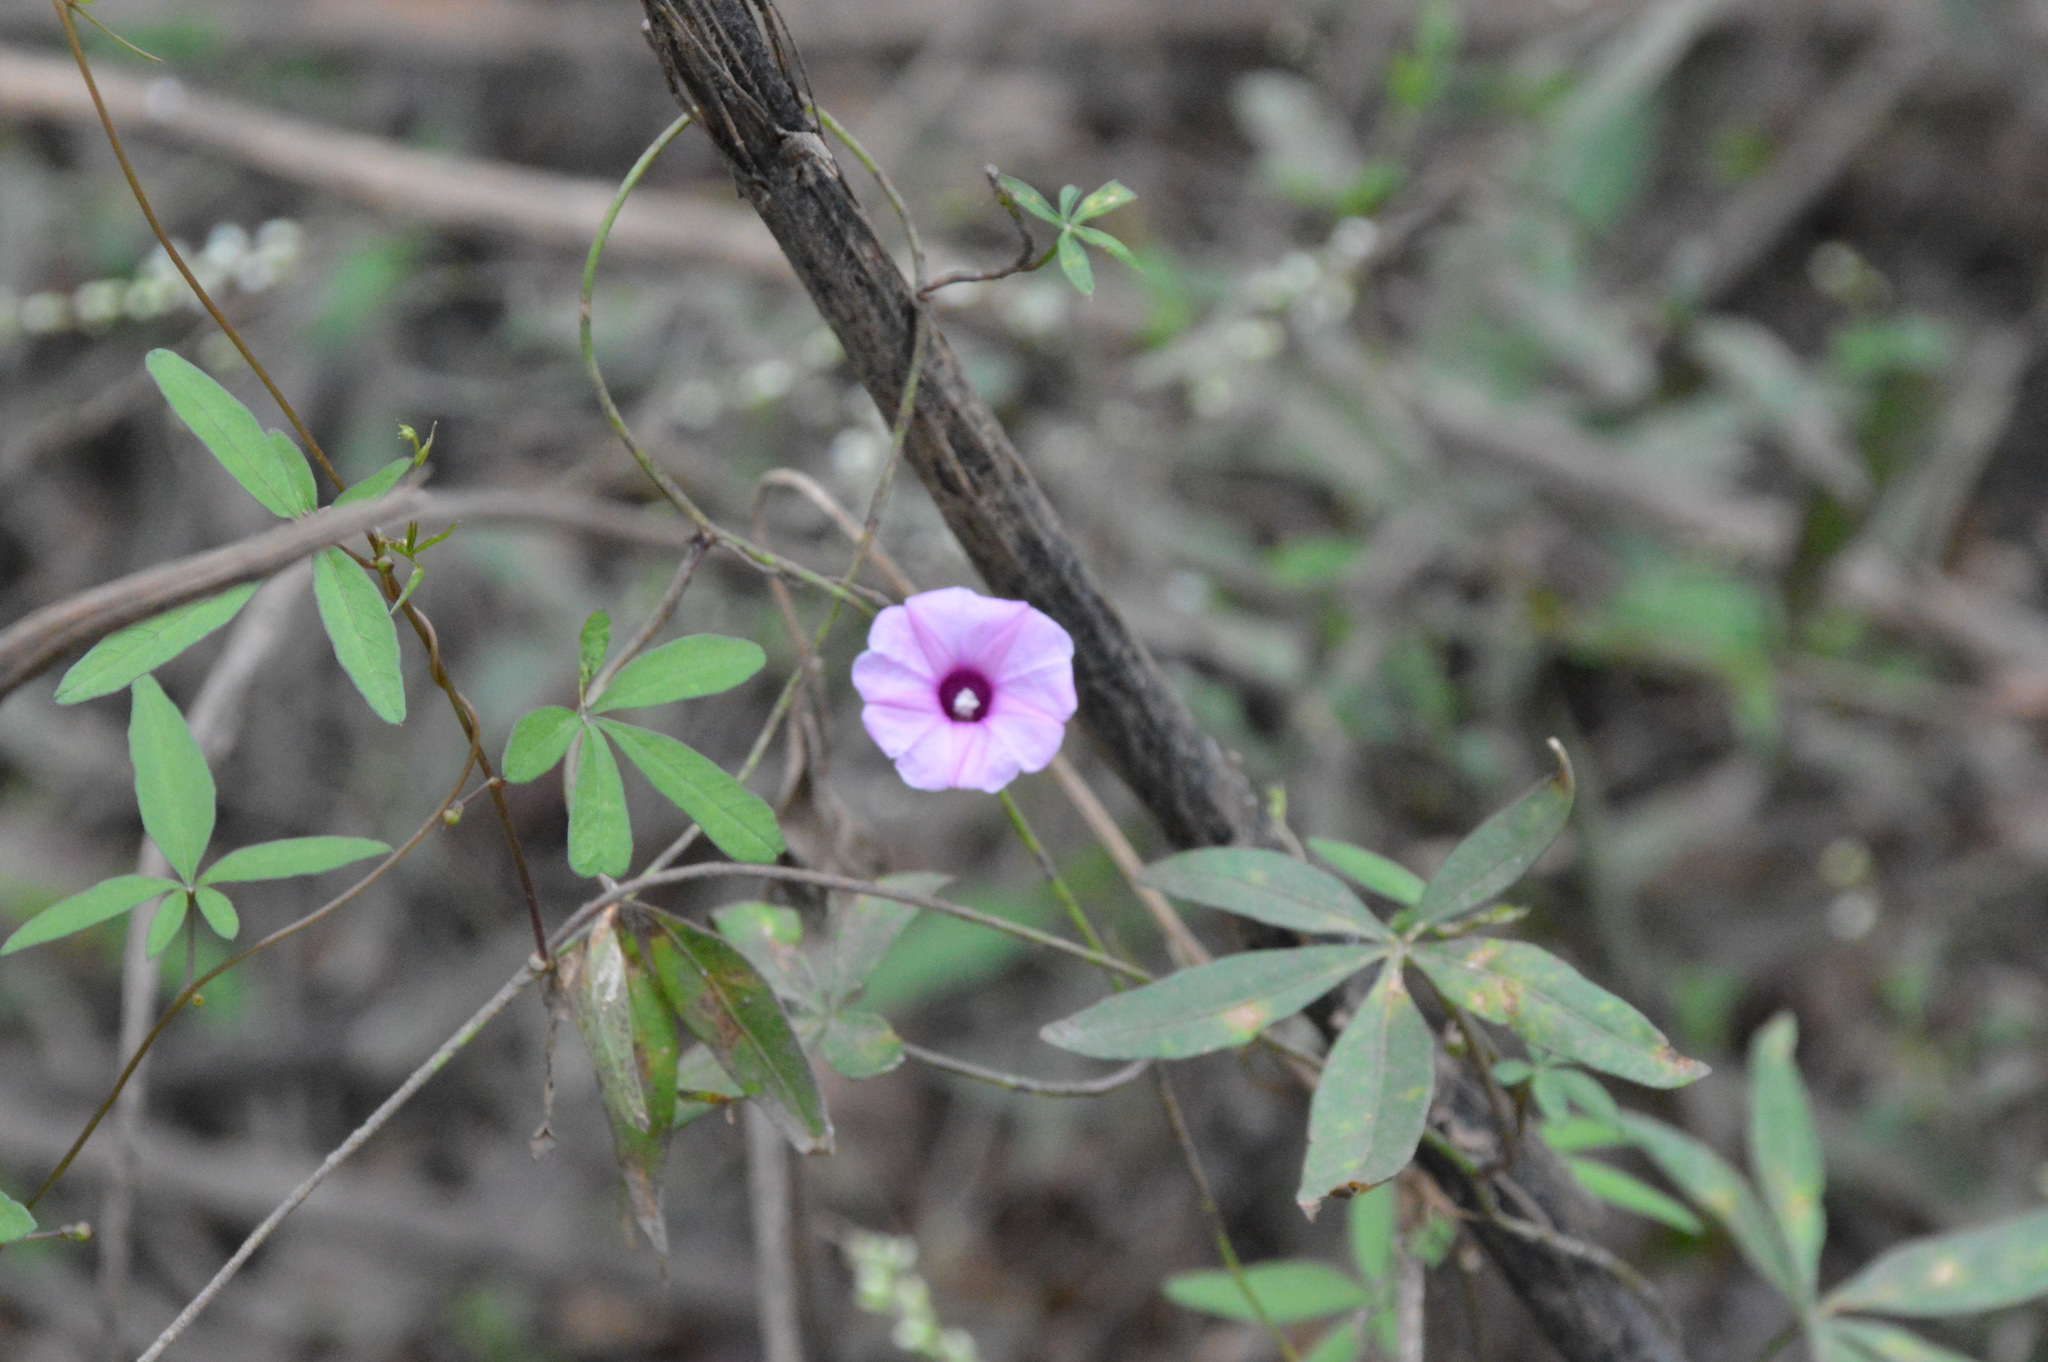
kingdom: Plantae
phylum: Tracheophyta
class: Magnoliopsida
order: Solanales
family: Convolvulaceae
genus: Ipomoea
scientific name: Ipomoea heptaphylla
